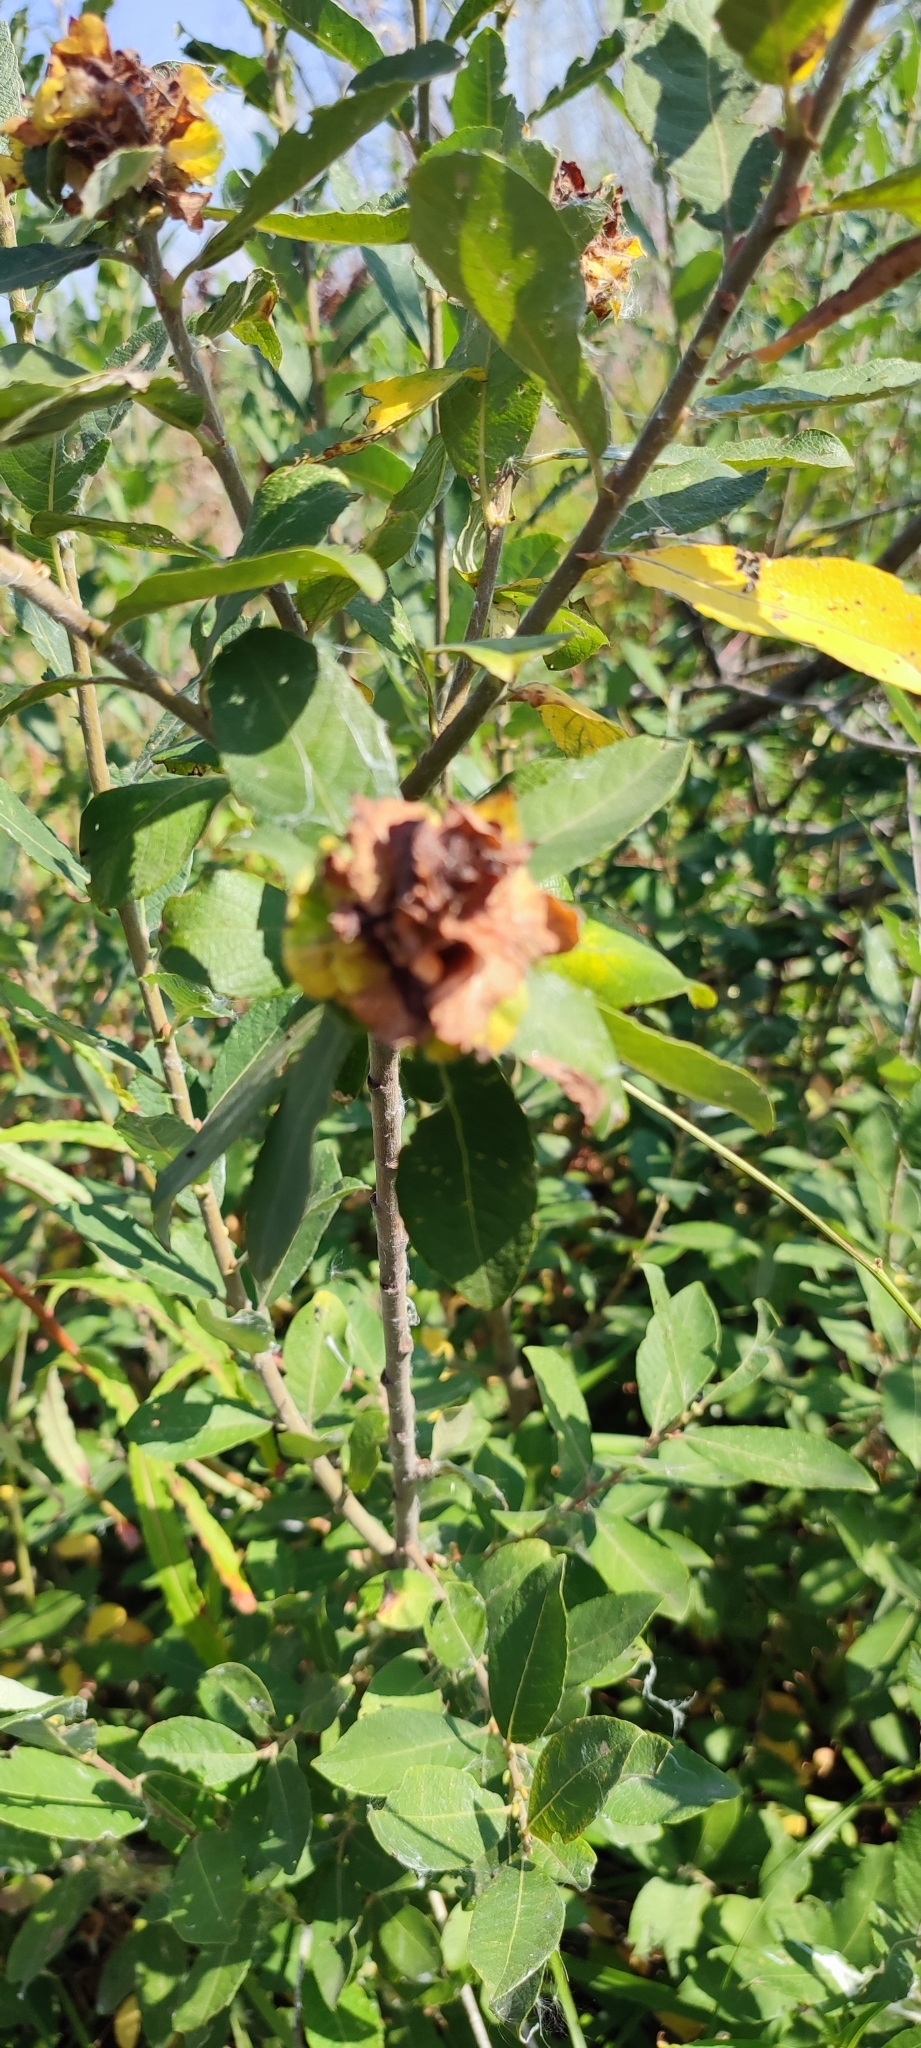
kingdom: Animalia
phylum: Arthropoda
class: Insecta
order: Diptera
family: Cecidomyiidae
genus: Rabdophaga
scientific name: Rabdophaga rosaria
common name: Willow rose gall midge
